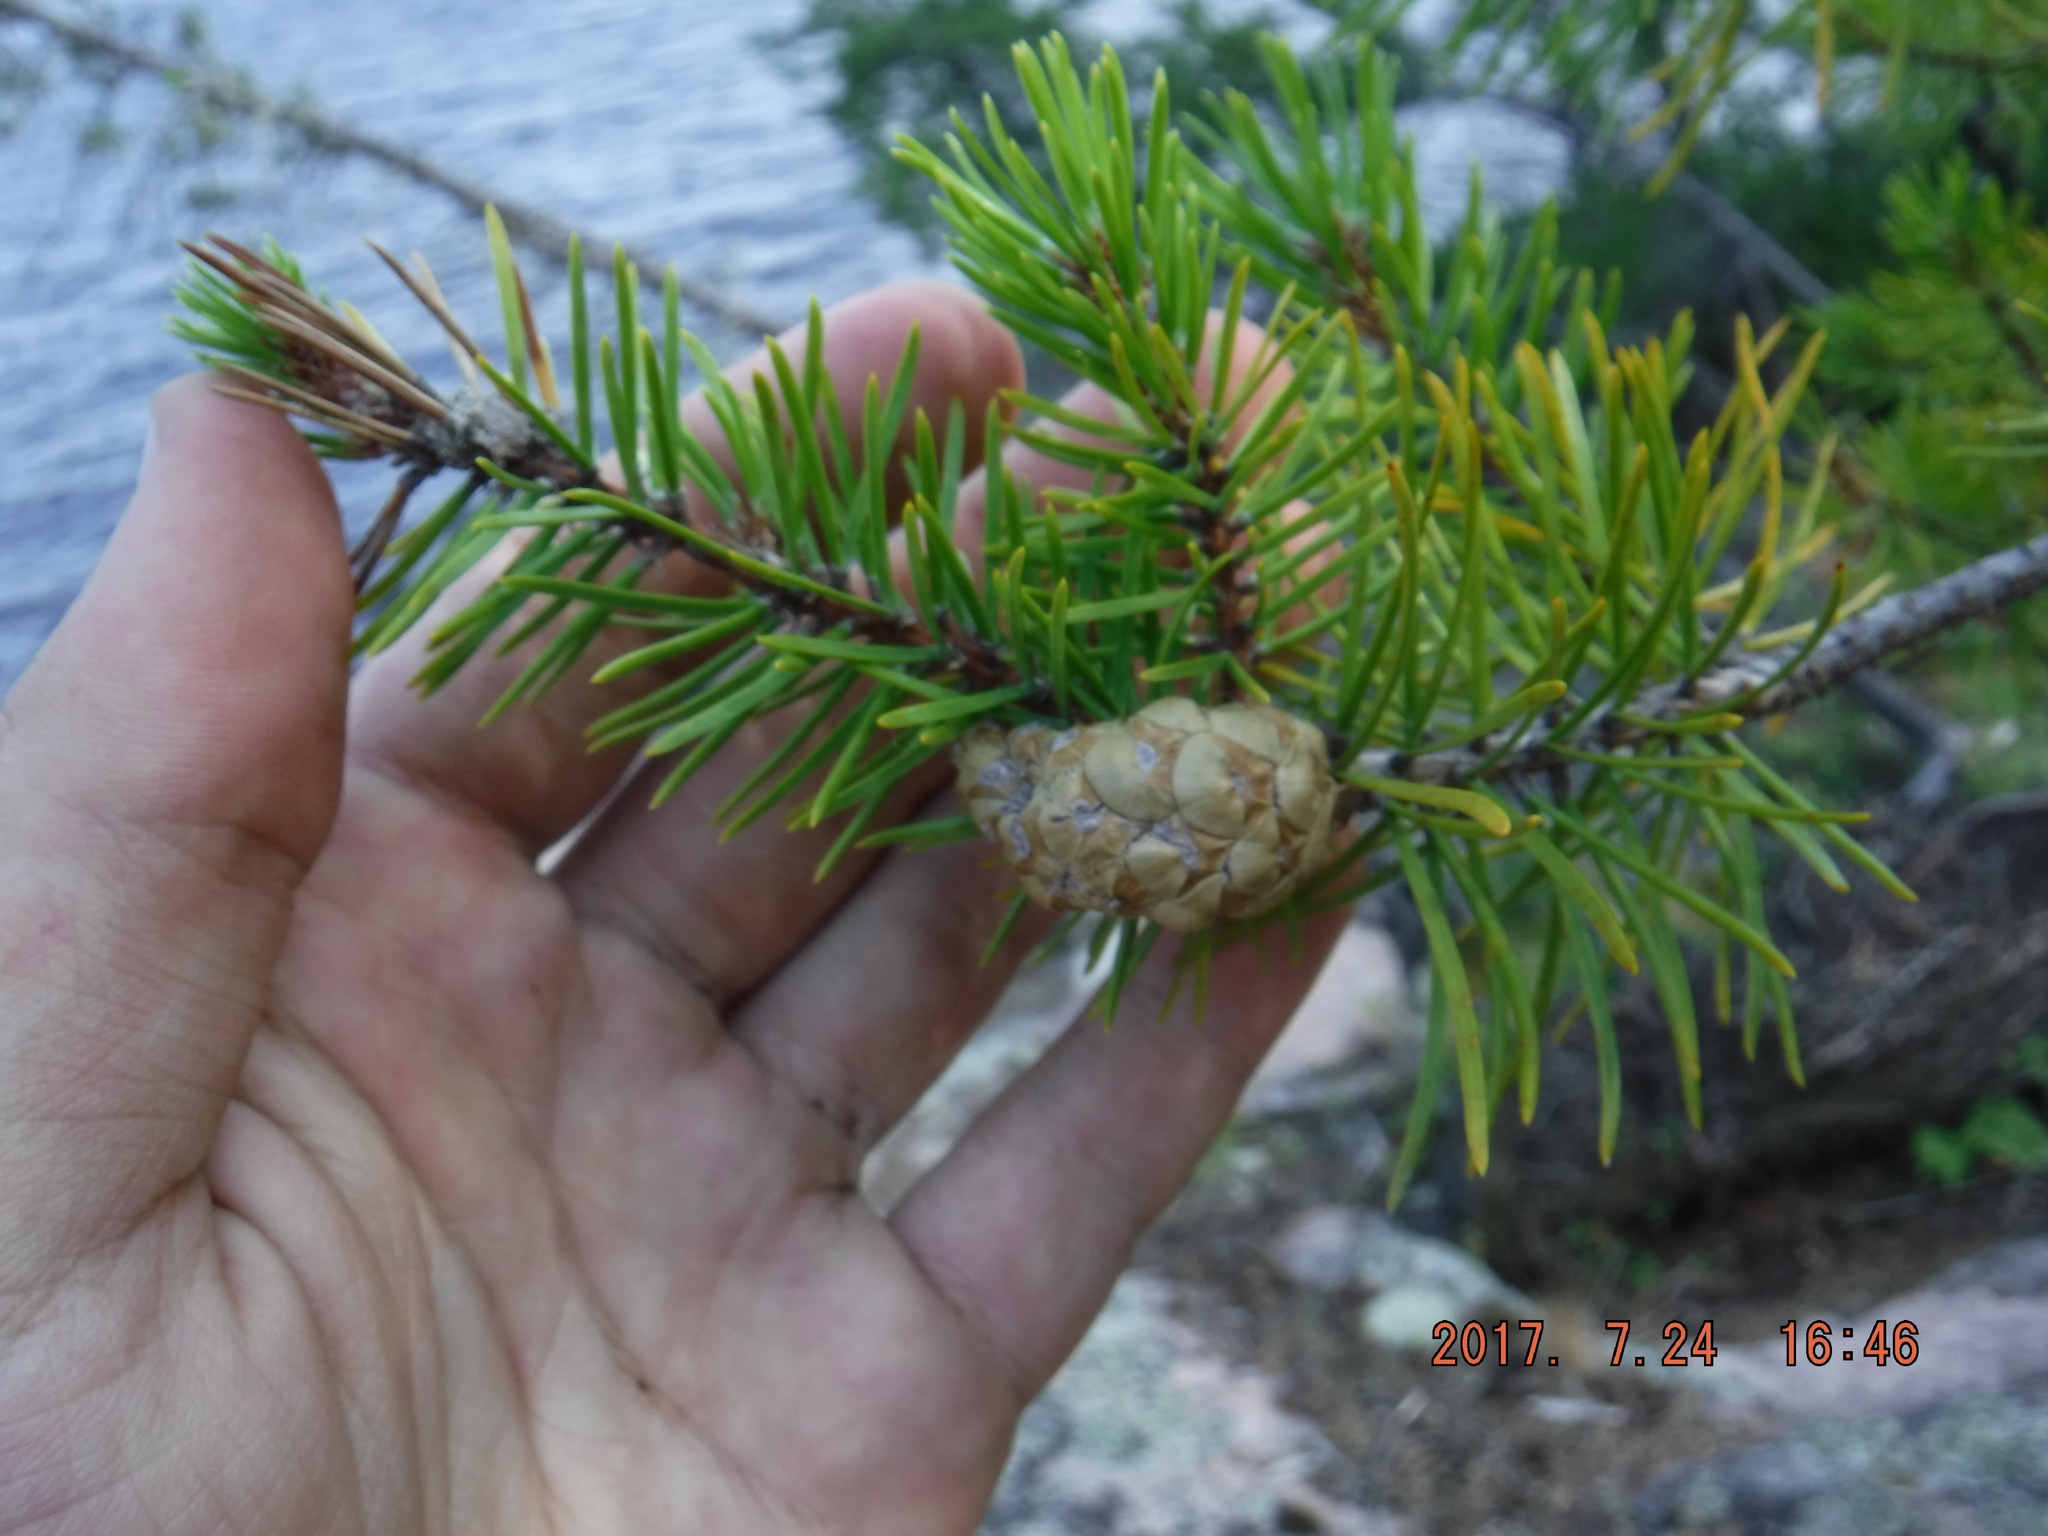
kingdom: Plantae
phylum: Tracheophyta
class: Pinopsida
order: Pinales
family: Pinaceae
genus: Pinus
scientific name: Pinus banksiana
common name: Jack pine
